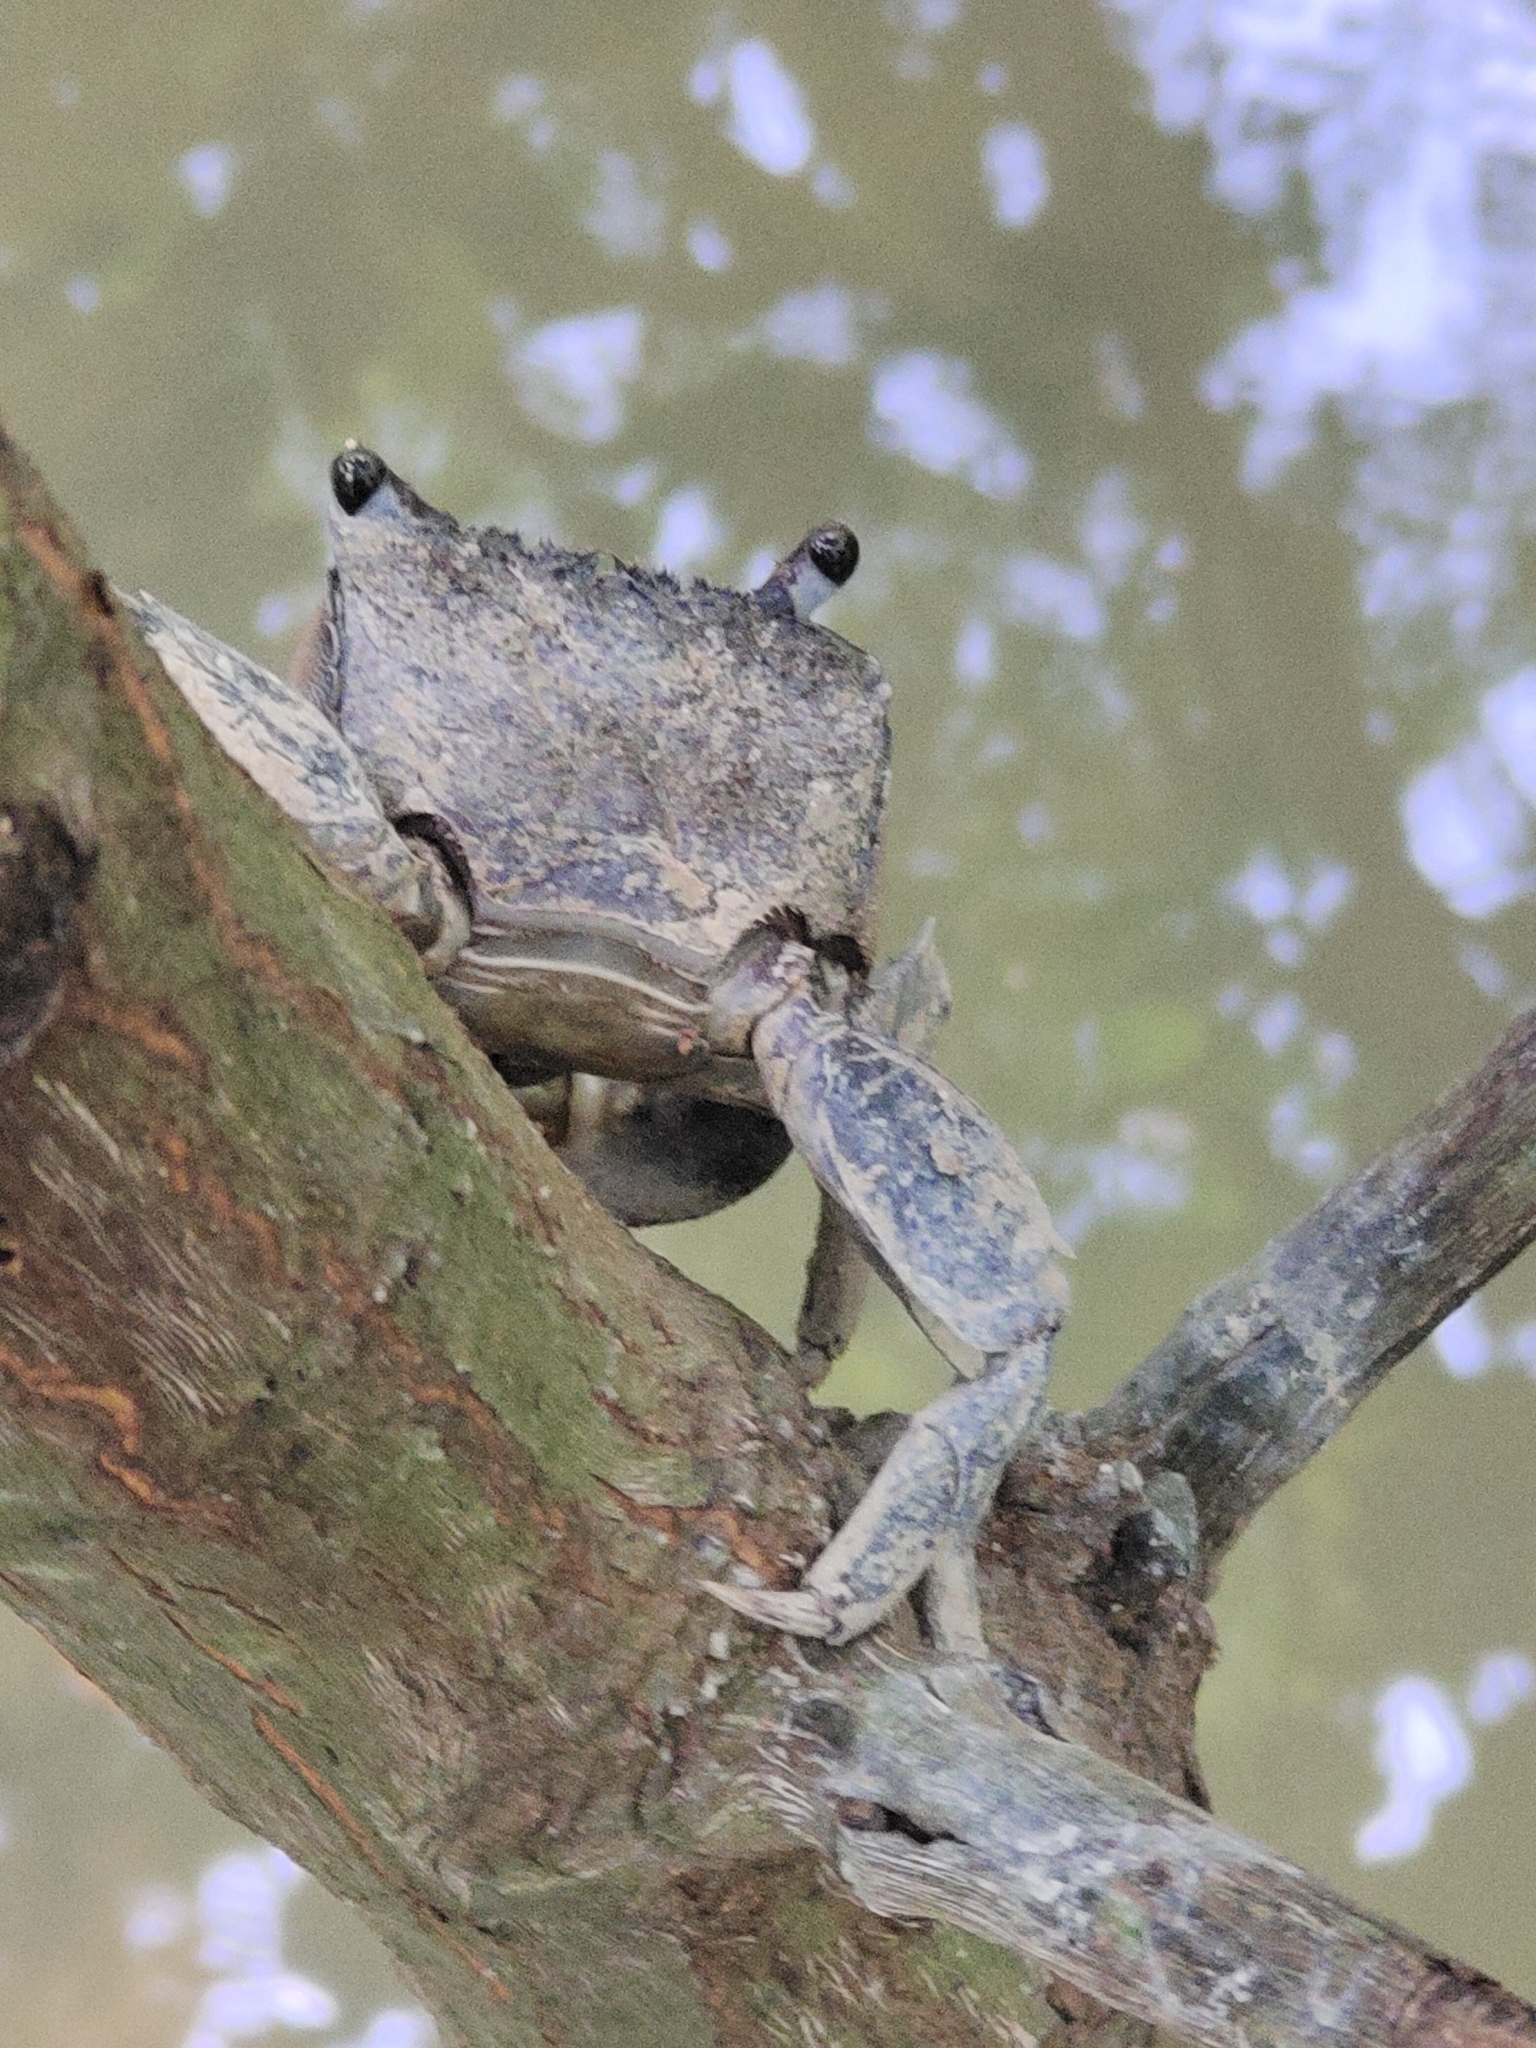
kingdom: Animalia
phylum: Arthropoda
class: Malacostraca
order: Decapoda
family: Sesarmidae
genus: Episesarma
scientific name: Episesarma versicolor
